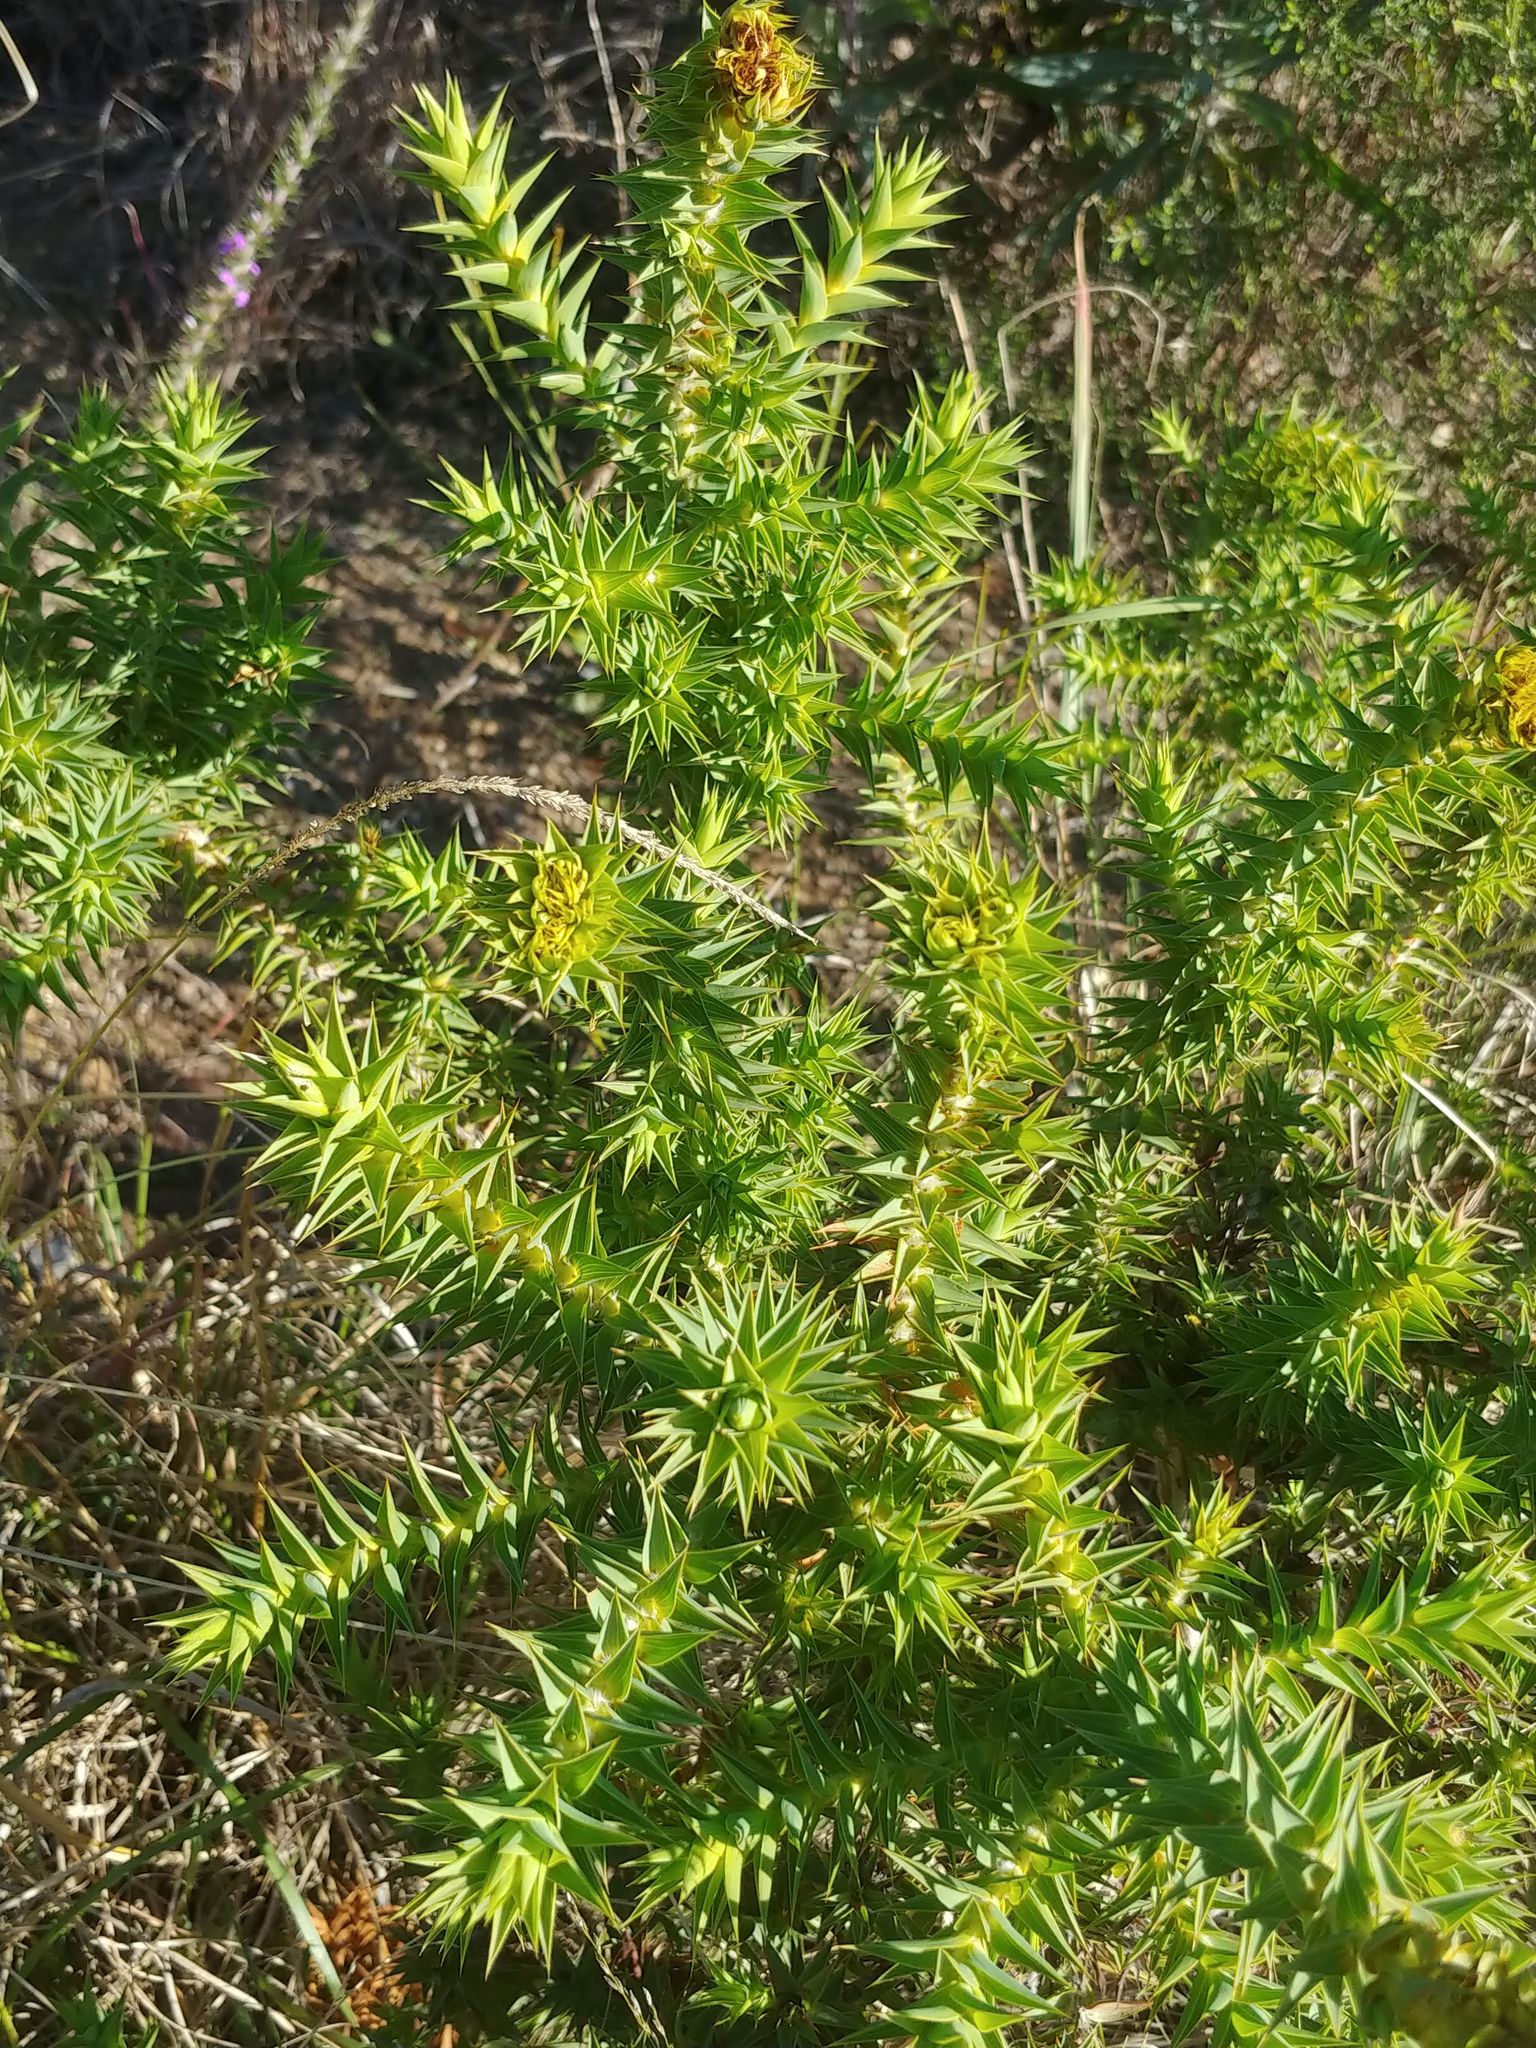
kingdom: Plantae
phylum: Tracheophyta
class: Magnoliopsida
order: Fabales
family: Fabaceae
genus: Aspalathus
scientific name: Aspalathus cordata
